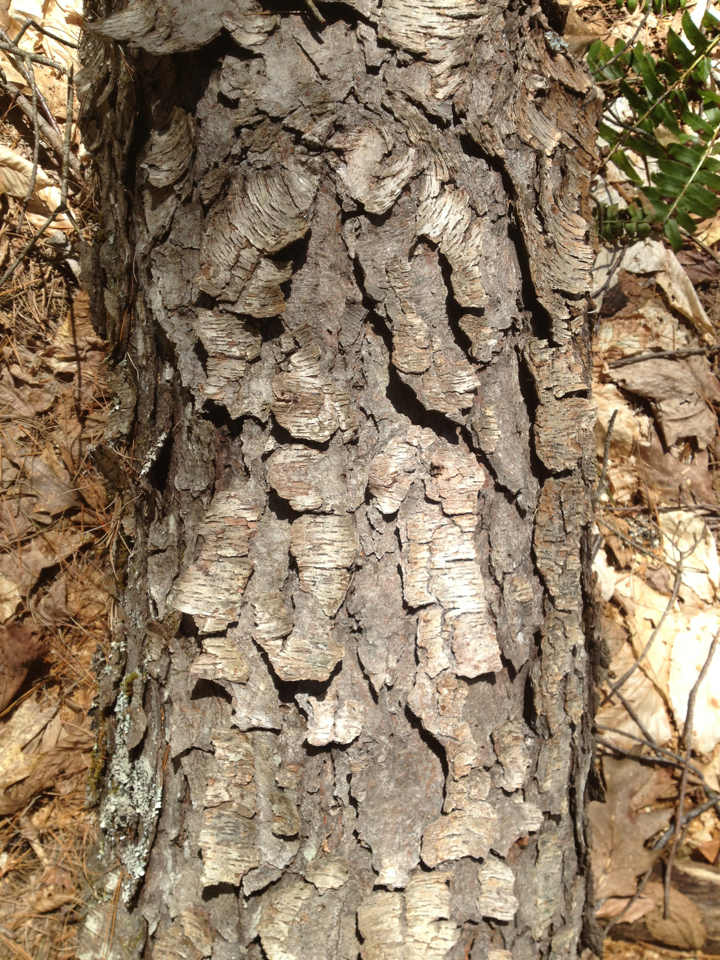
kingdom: Plantae
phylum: Tracheophyta
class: Magnoliopsida
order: Rosales
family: Rosaceae
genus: Prunus
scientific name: Prunus serotina
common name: Black cherry
